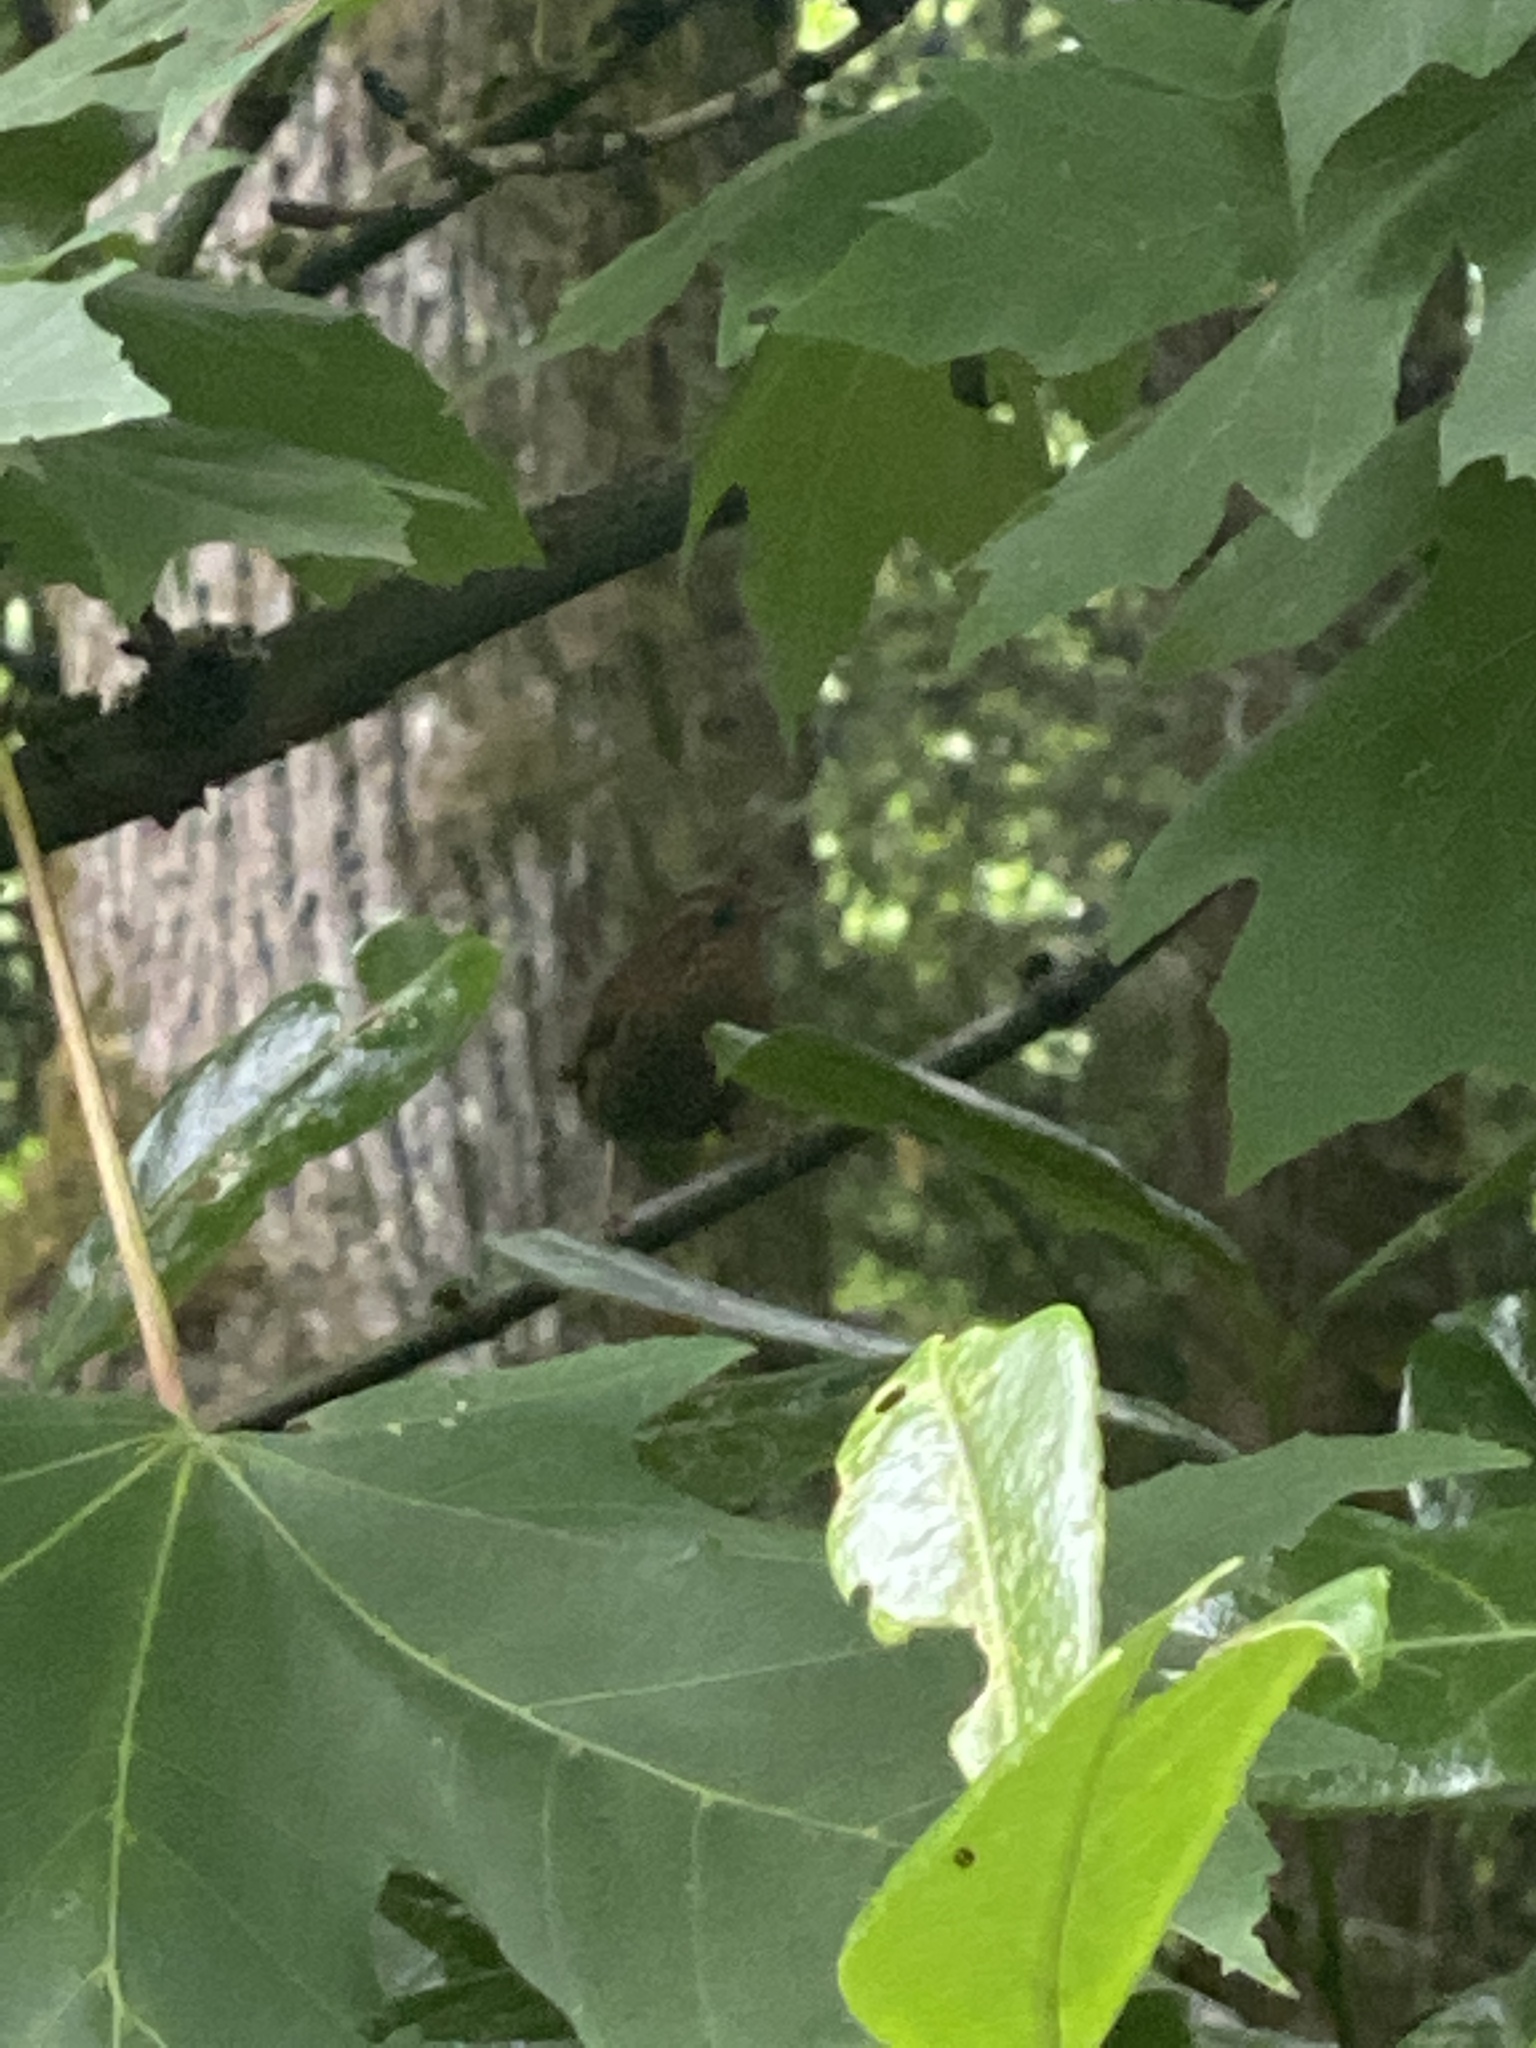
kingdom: Animalia
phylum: Chordata
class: Aves
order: Passeriformes
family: Troglodytidae
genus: Troglodytes
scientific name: Troglodytes pacificus
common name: Pacific wren
